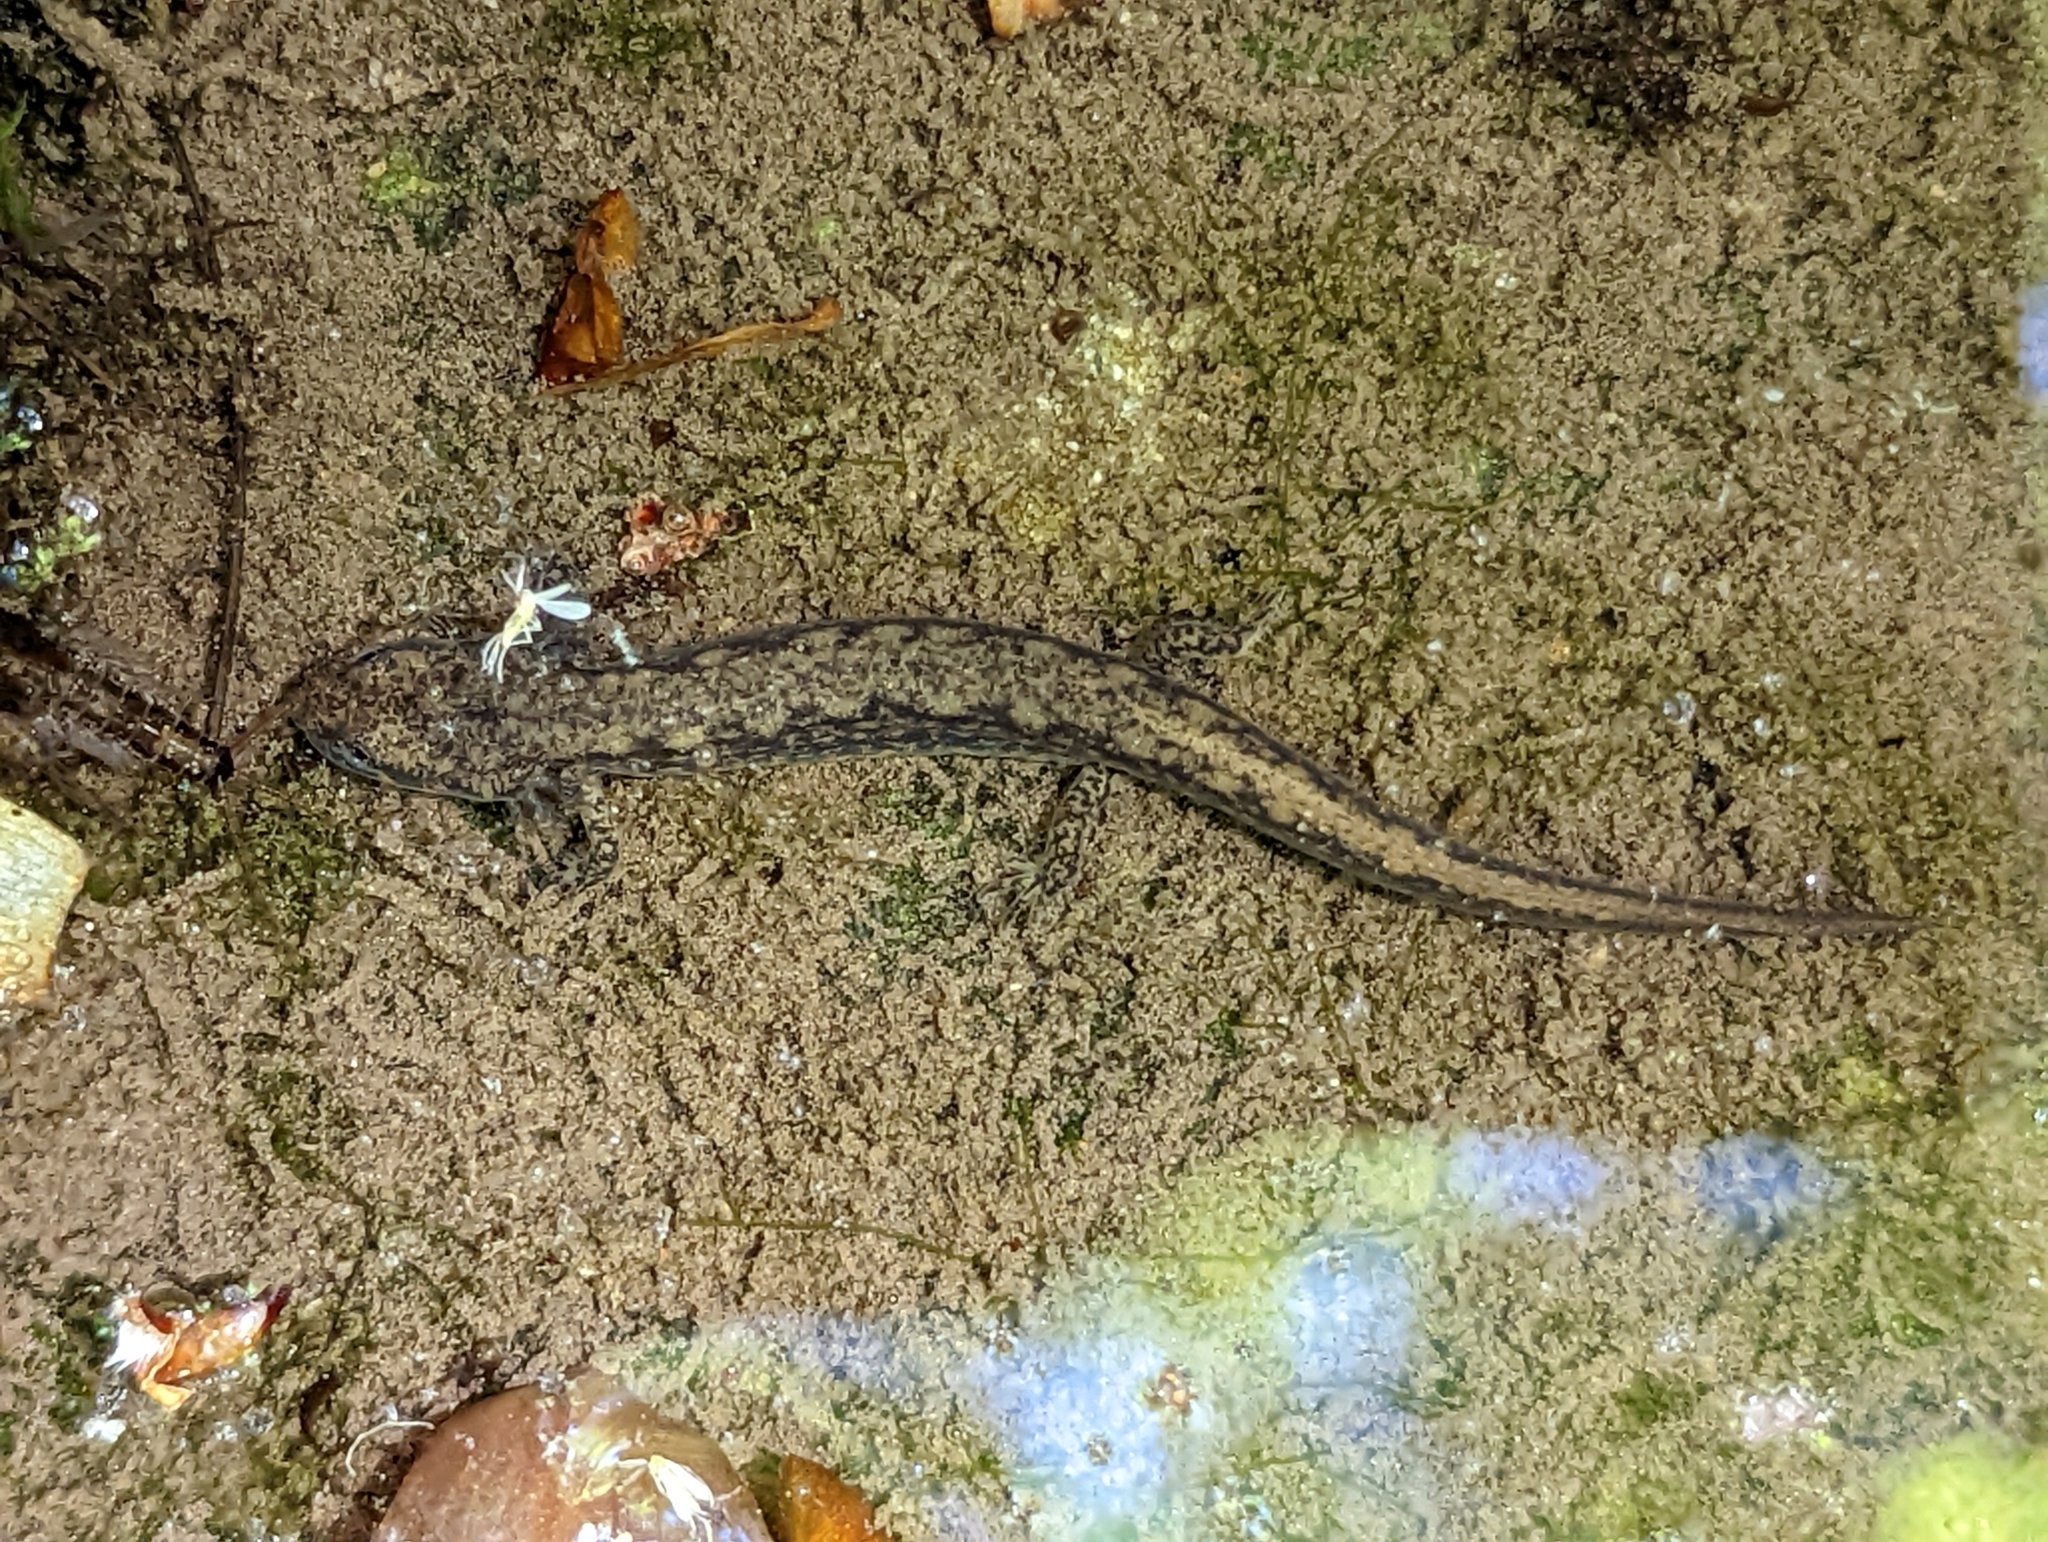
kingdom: Animalia
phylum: Chordata
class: Amphibia
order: Caudata
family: Plethodontidae
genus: Eurycea
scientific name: Eurycea bislineata
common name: Northern two-lined salamander
